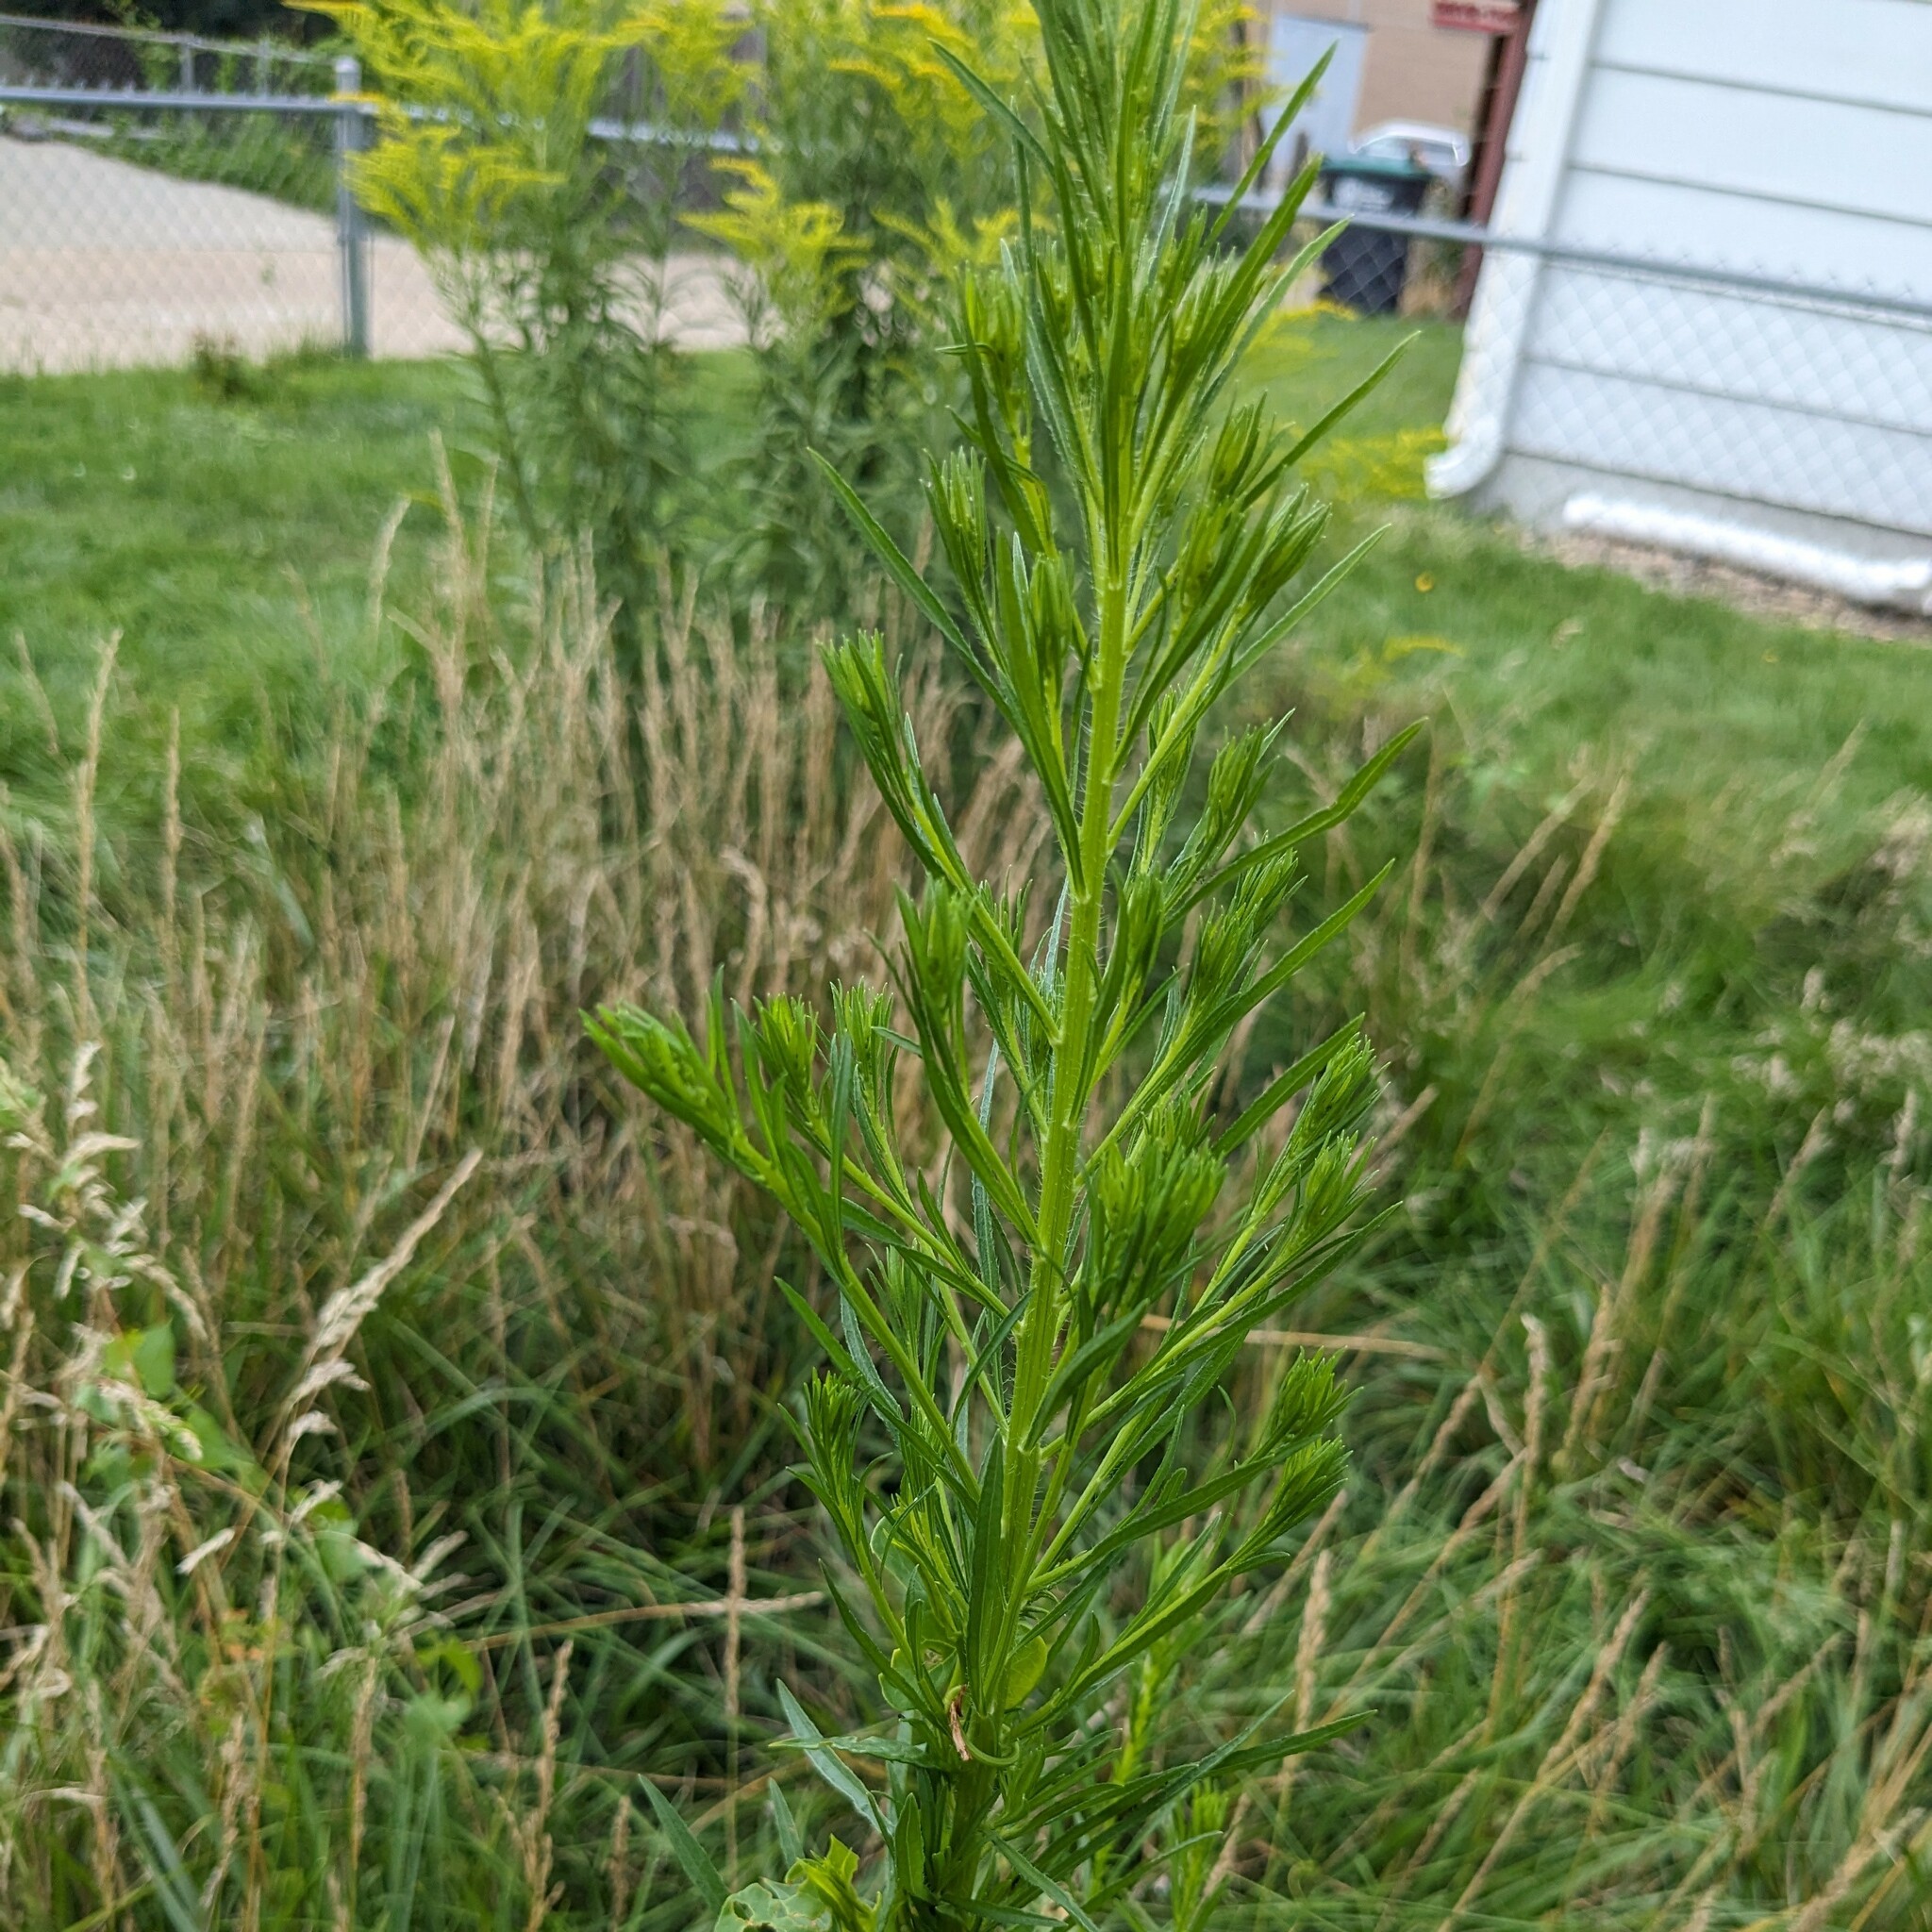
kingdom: Plantae
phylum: Tracheophyta
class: Magnoliopsida
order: Asterales
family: Asteraceae
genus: Erigeron
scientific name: Erigeron canadensis
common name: Canadian fleabane
